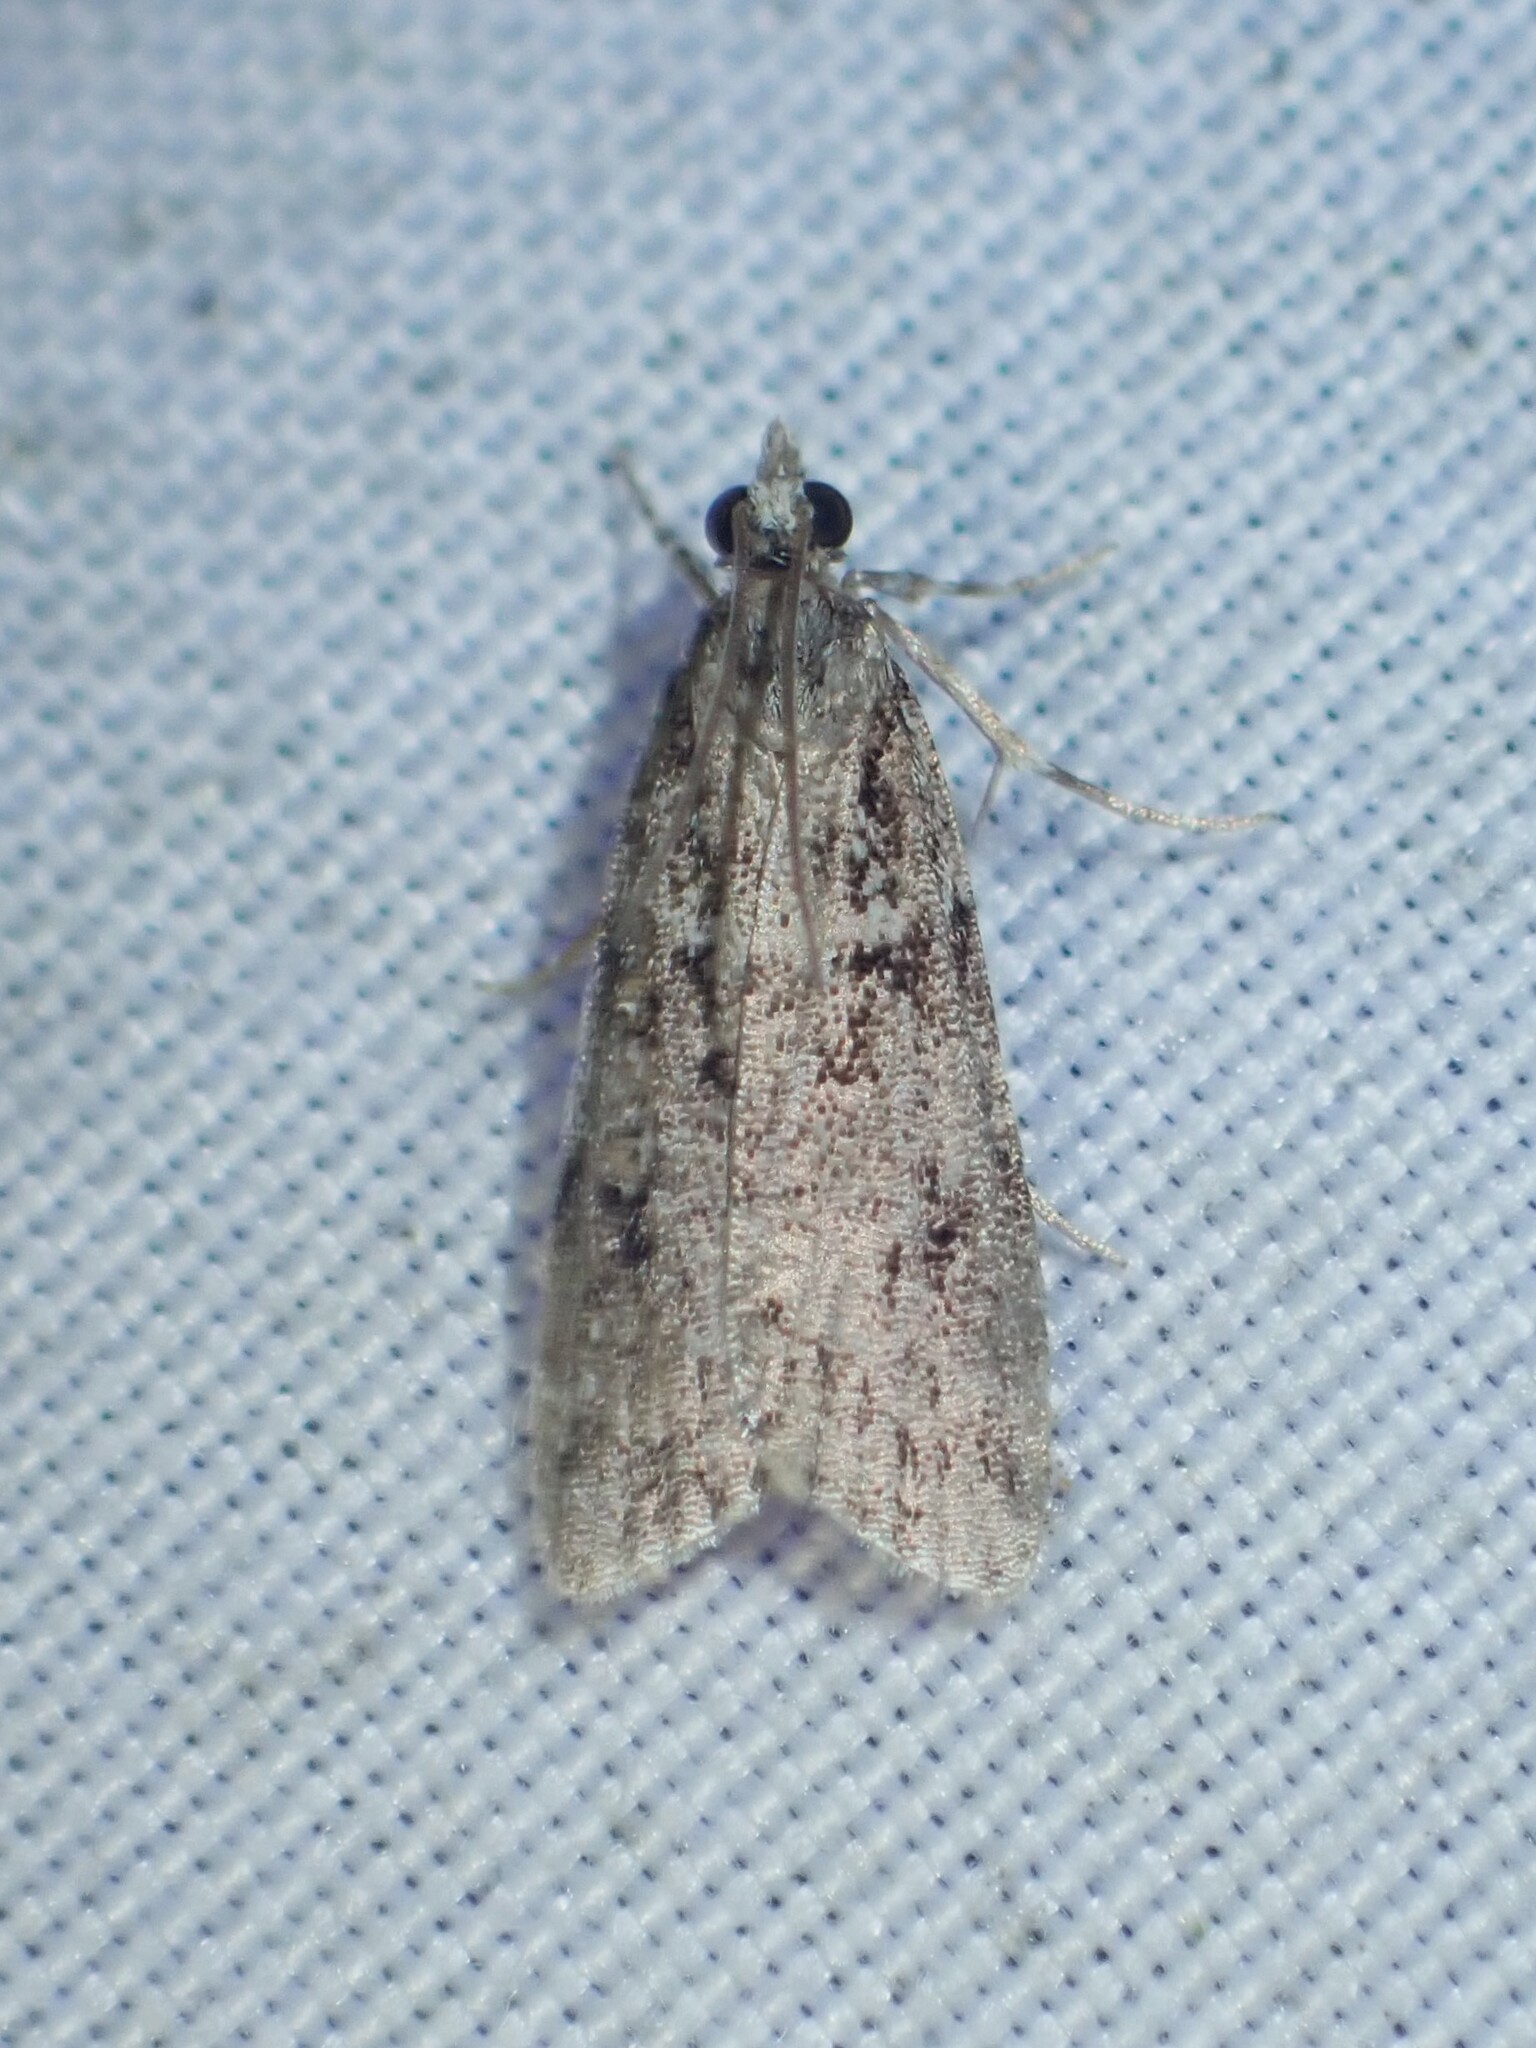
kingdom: Animalia
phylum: Arthropoda
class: Insecta
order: Lepidoptera
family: Crambidae
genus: Scoparia
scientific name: Scoparia biplagialis
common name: Double-striped scoparia moth
